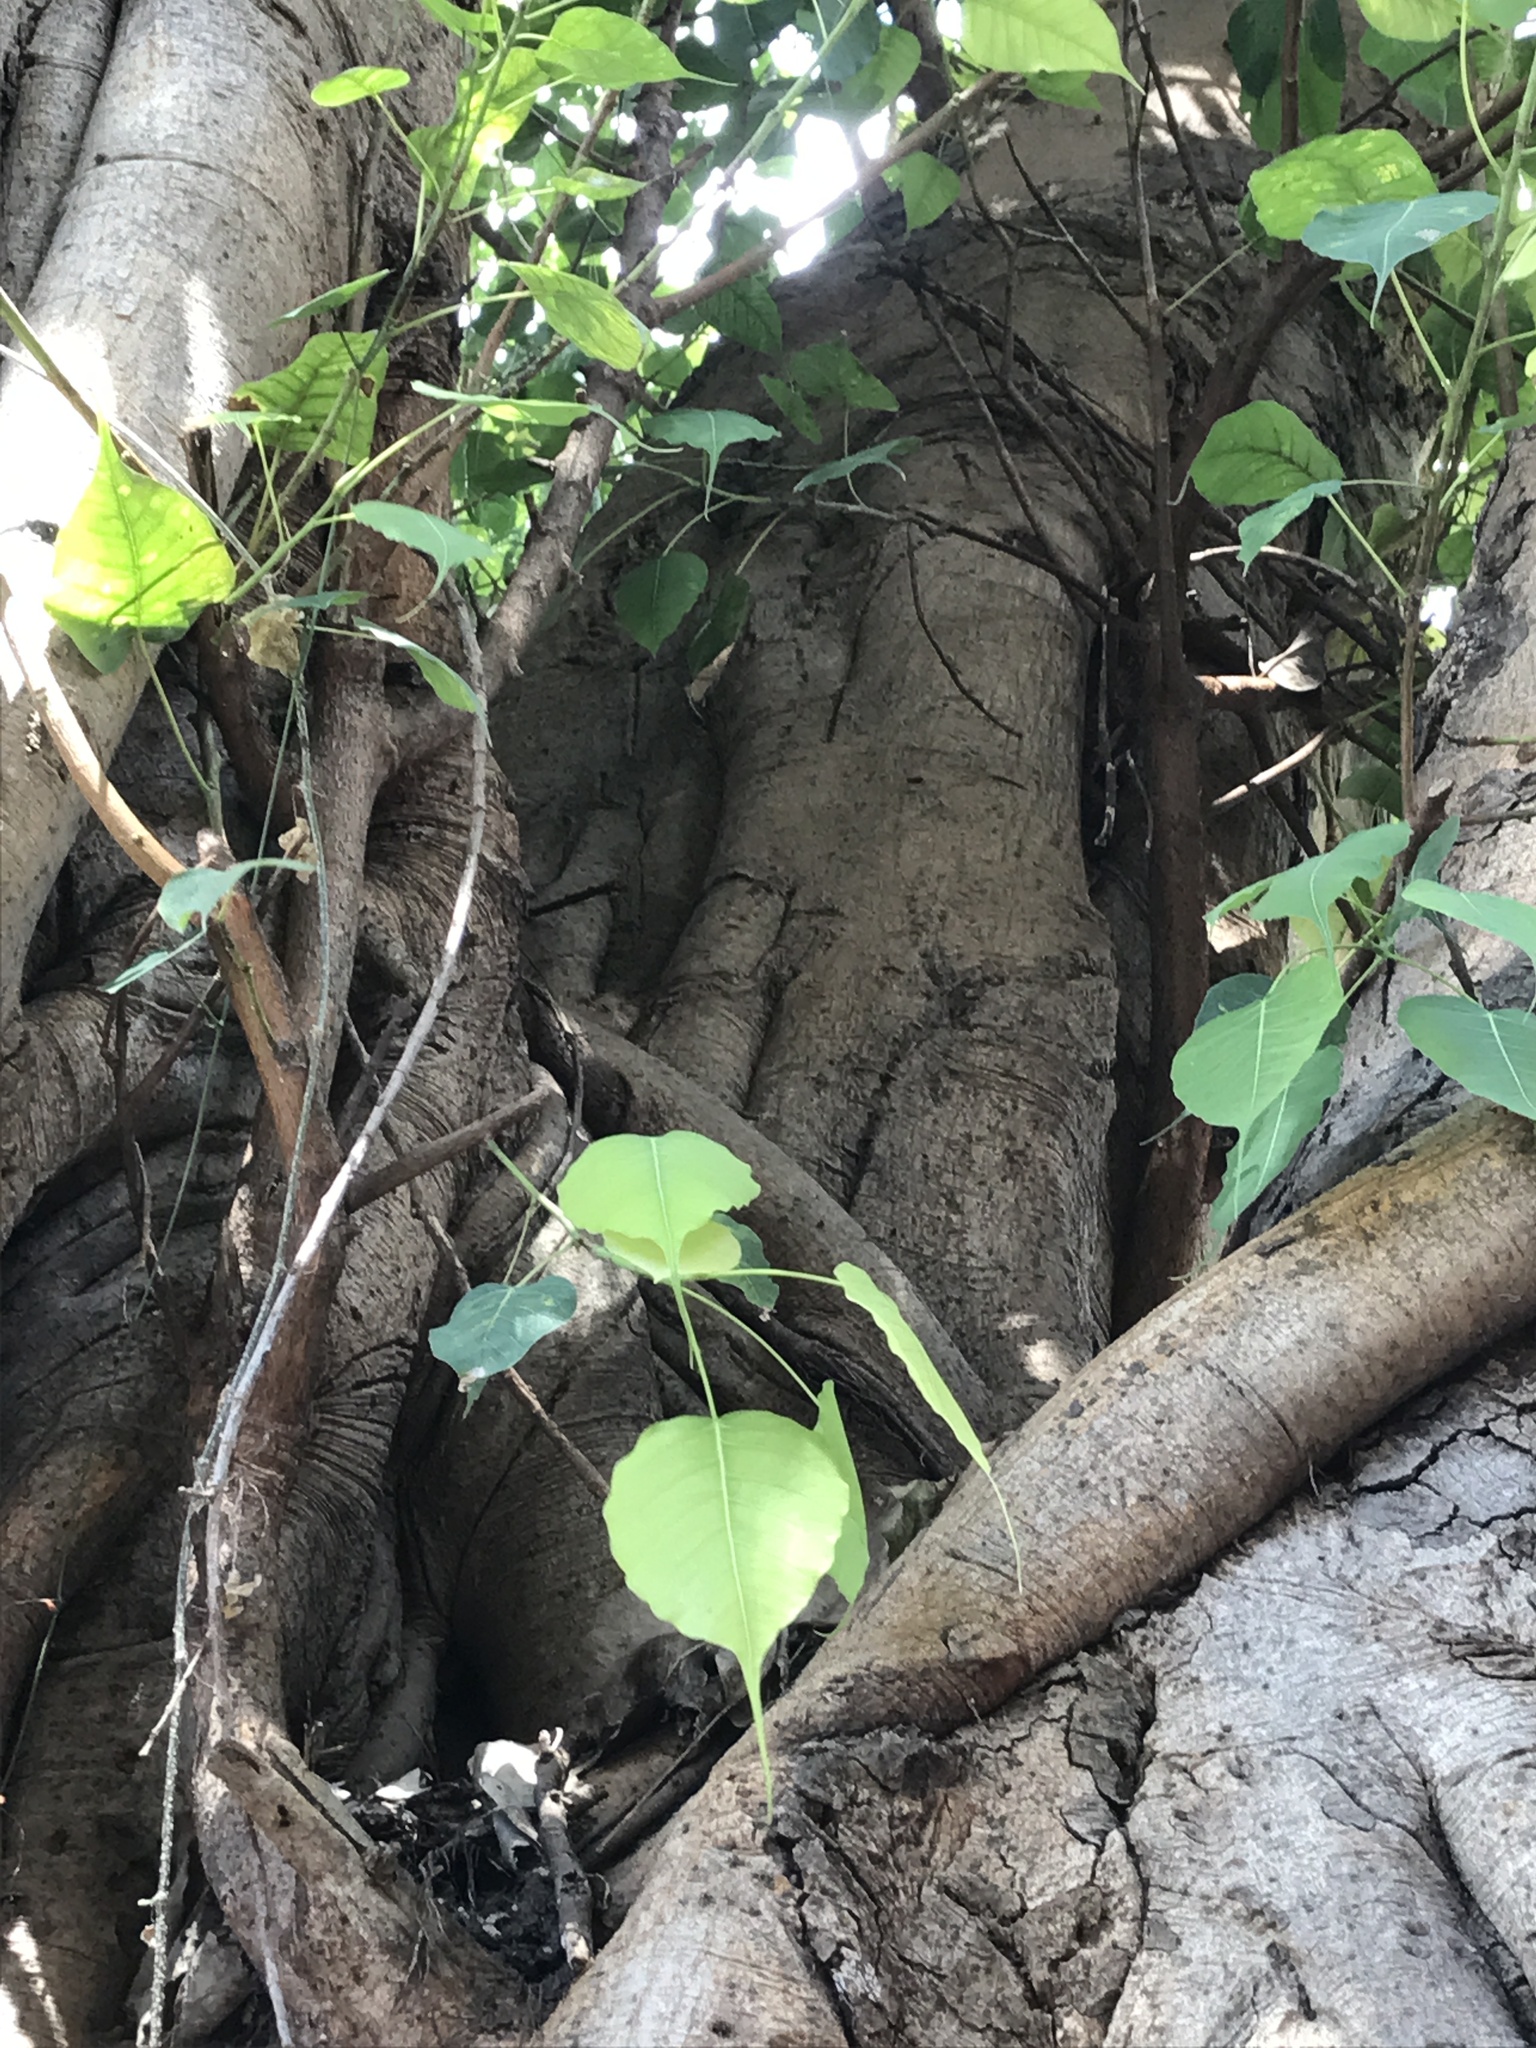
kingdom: Plantae
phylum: Tracheophyta
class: Magnoliopsida
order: Rosales
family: Moraceae
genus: Ficus
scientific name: Ficus religiosa
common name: Bodhi tree
